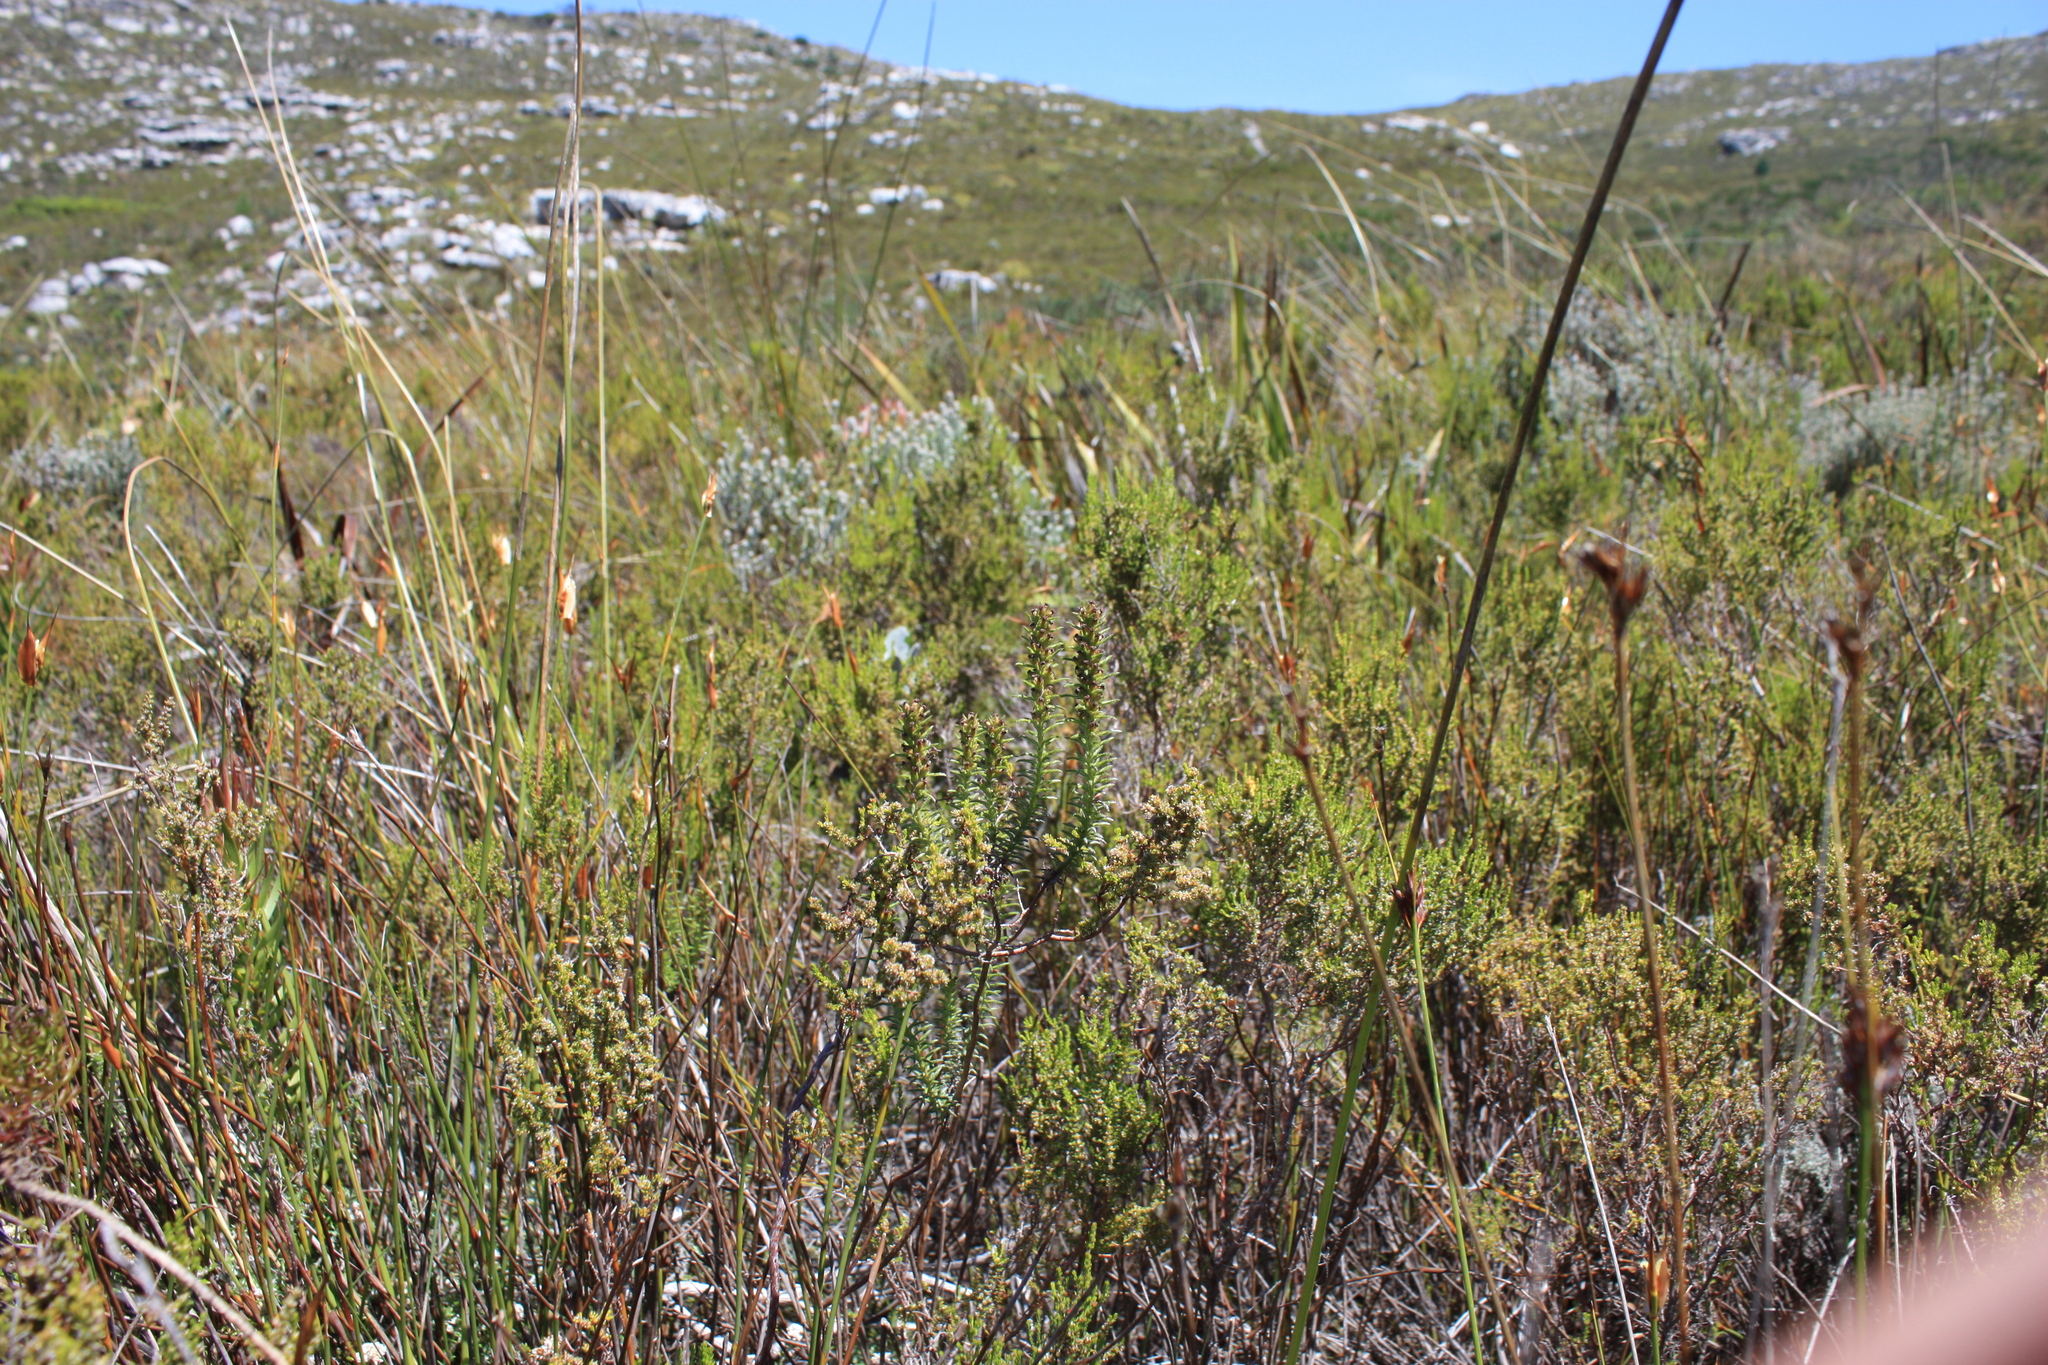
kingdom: Plantae
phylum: Tracheophyta
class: Magnoliopsida
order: Asterales
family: Asteraceae
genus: Myrovernix
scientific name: Myrovernix longifolius
